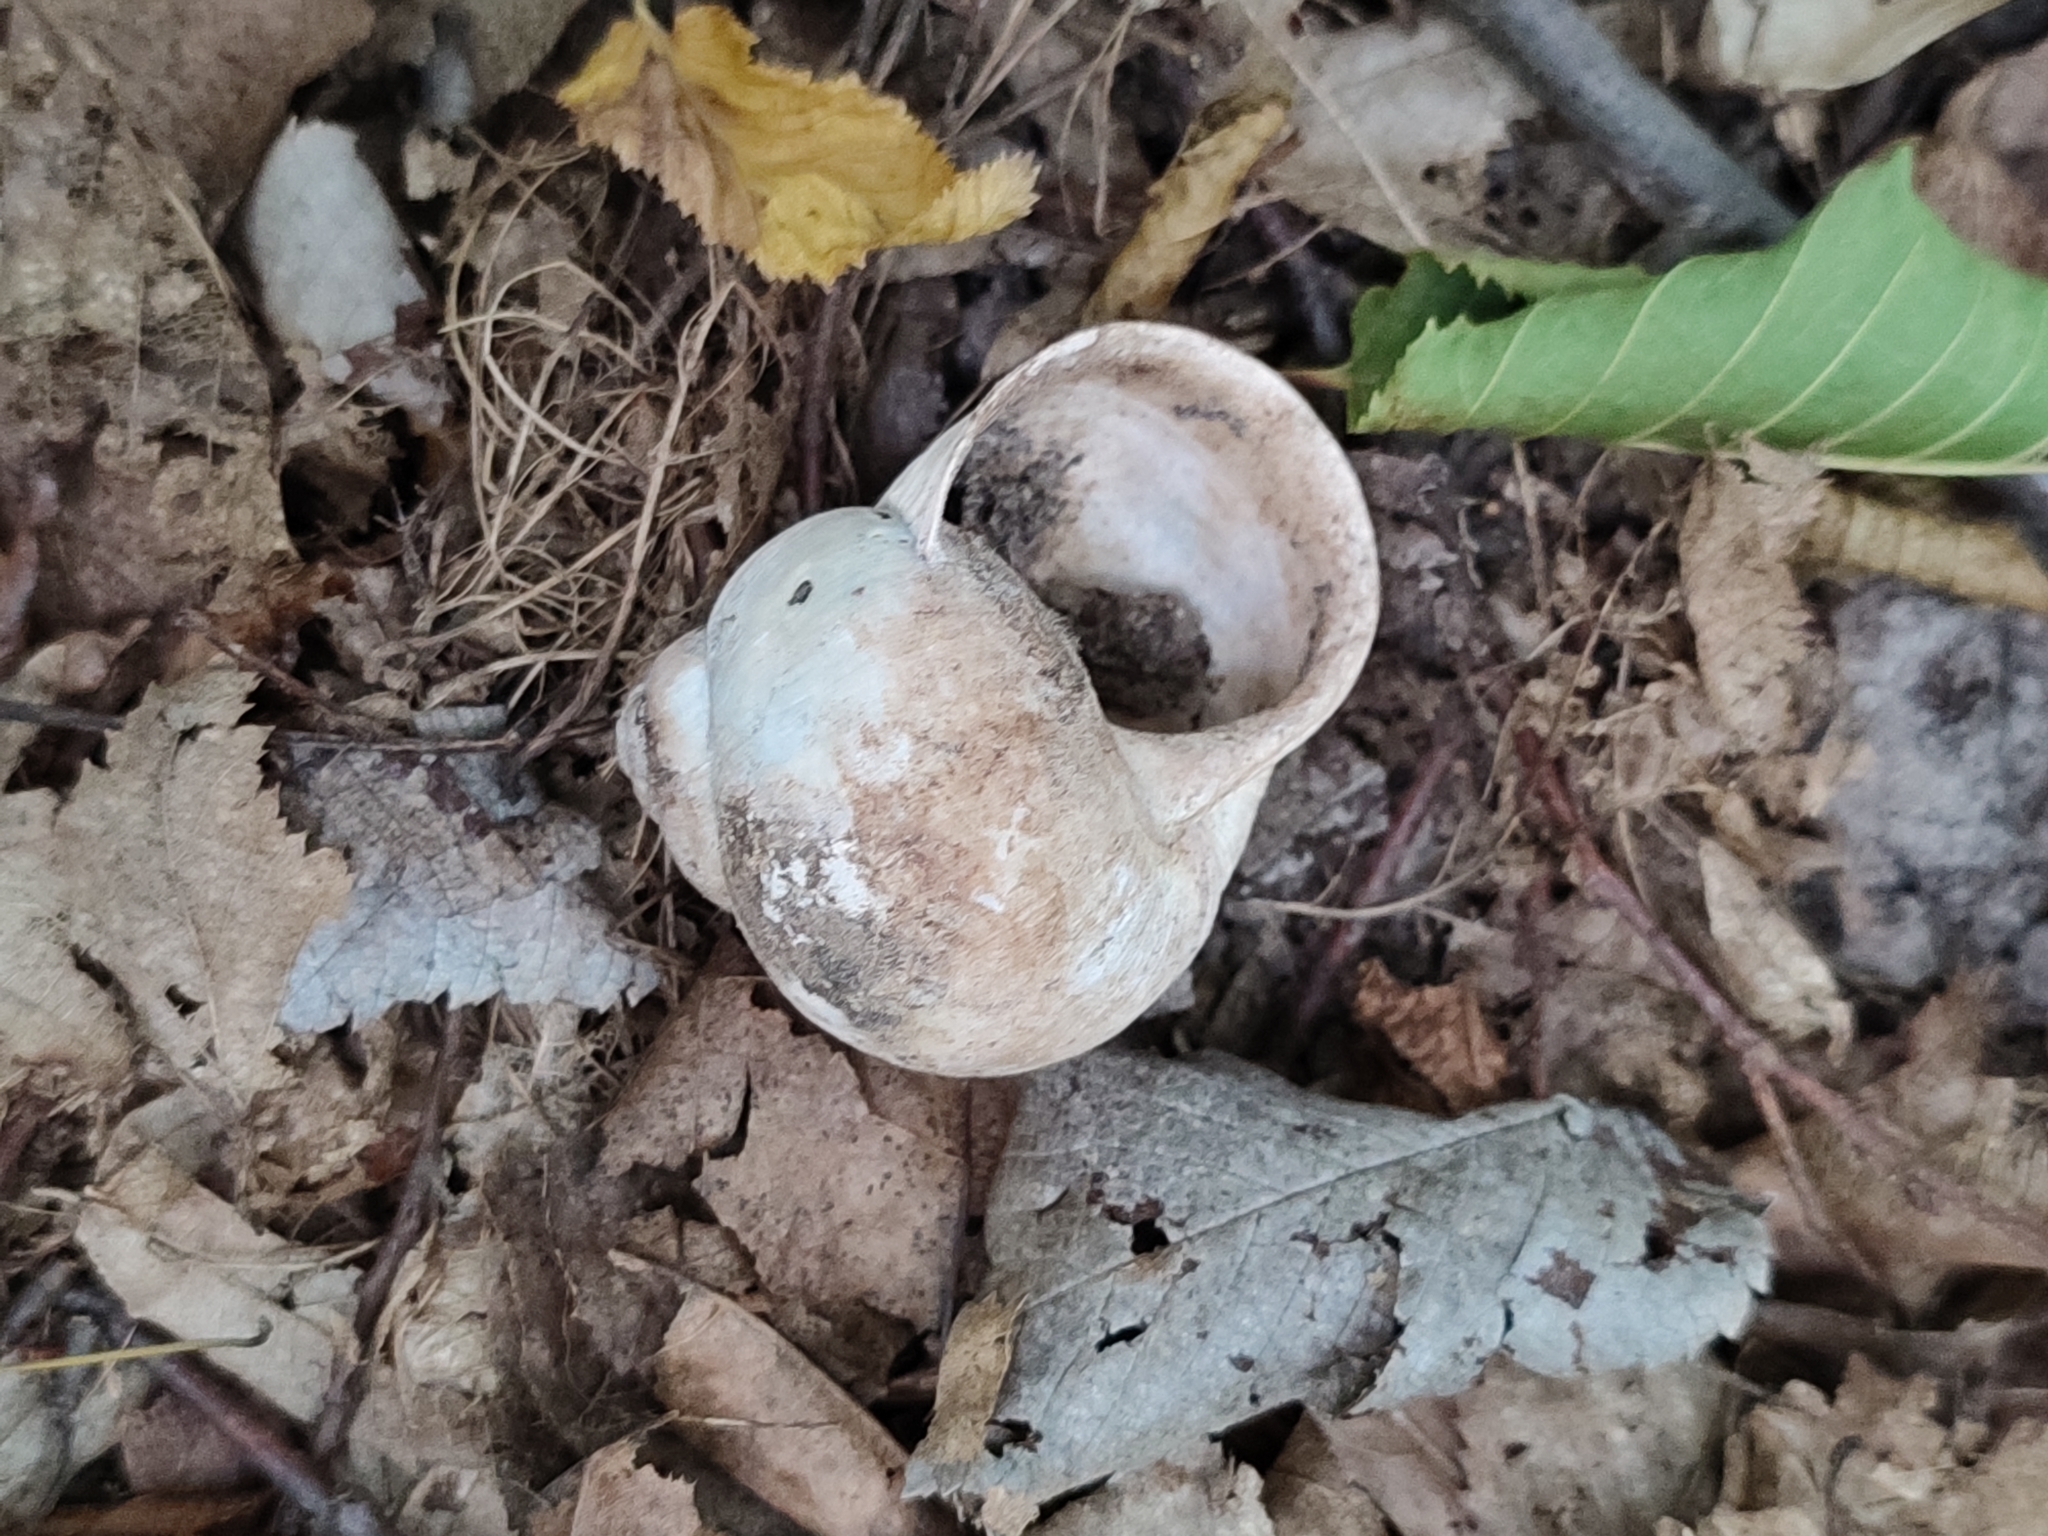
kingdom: Animalia
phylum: Mollusca
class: Gastropoda
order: Stylommatophora
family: Helicidae
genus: Helix
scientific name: Helix pomatia
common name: Roman snail
